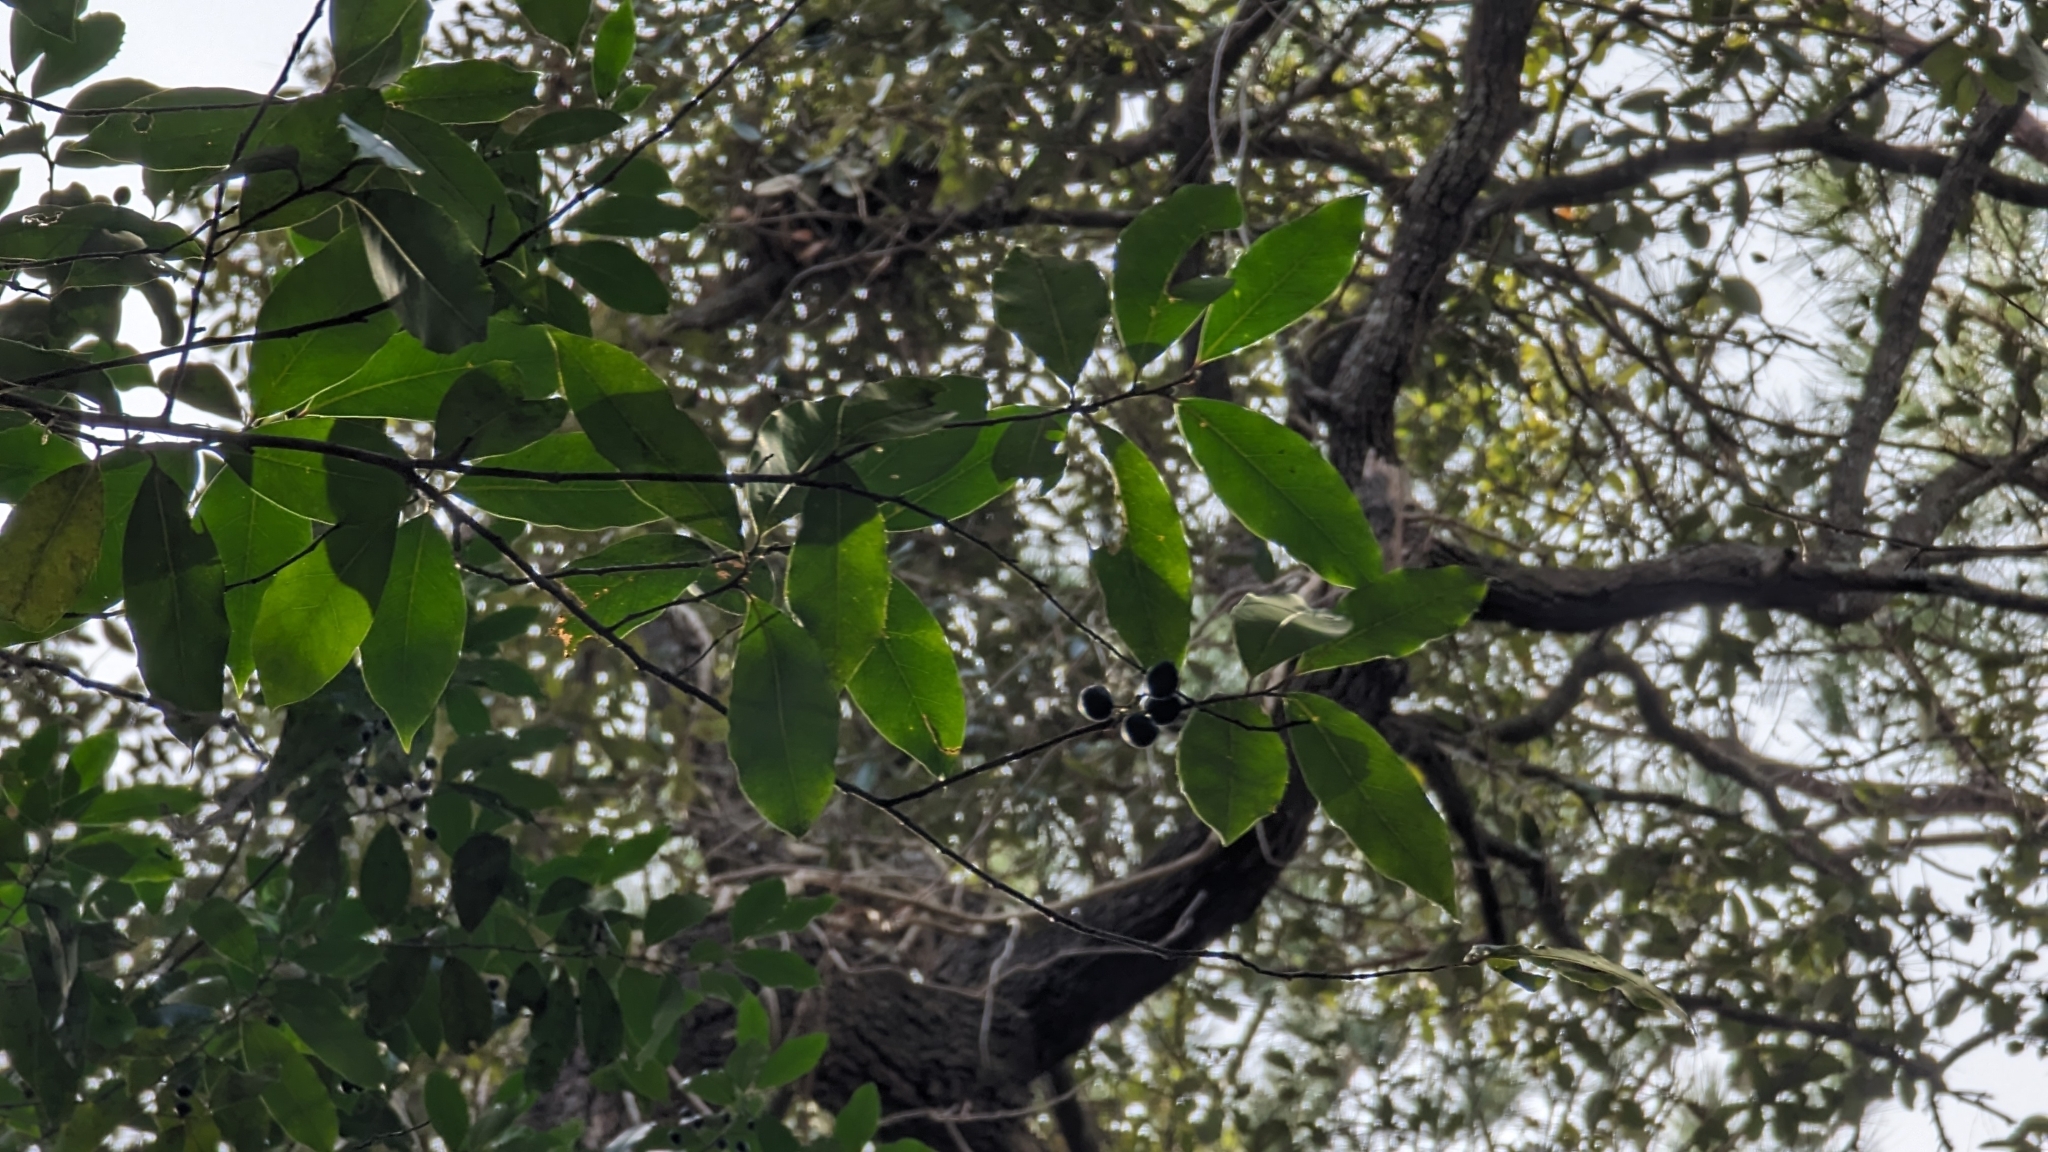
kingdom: Plantae
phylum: Tracheophyta
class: Magnoliopsida
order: Rosales
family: Rosaceae
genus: Prunus
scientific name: Prunus caroliniana
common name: Carolina laurel cherry
